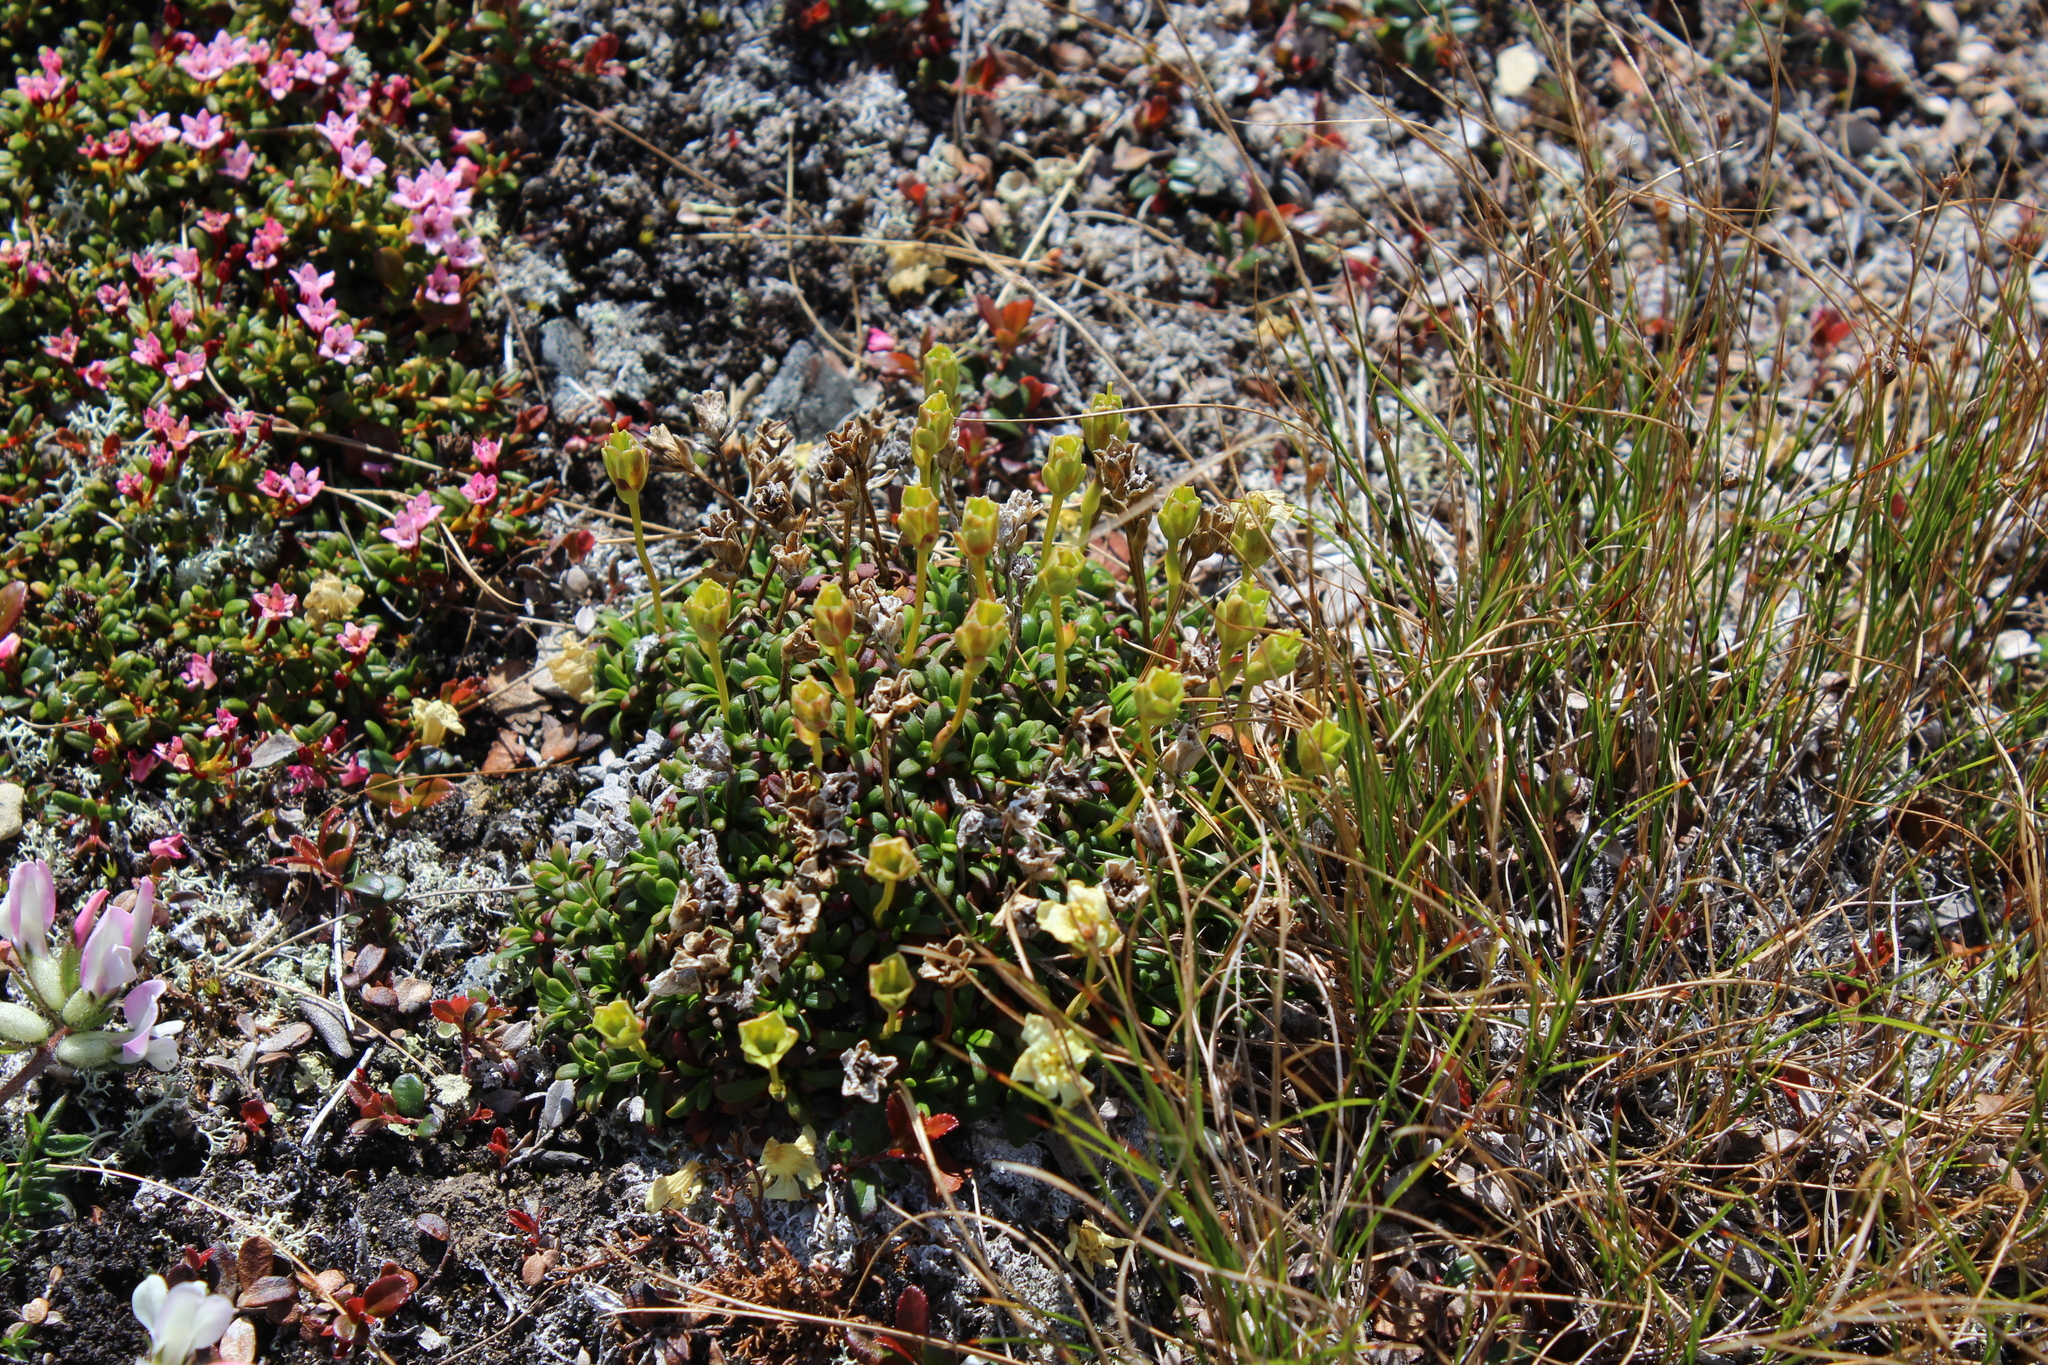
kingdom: Plantae
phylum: Tracheophyta
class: Magnoliopsida
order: Ericales
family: Diapensiaceae
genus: Diapensia
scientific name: Diapensia lapponica
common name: Diapensia
